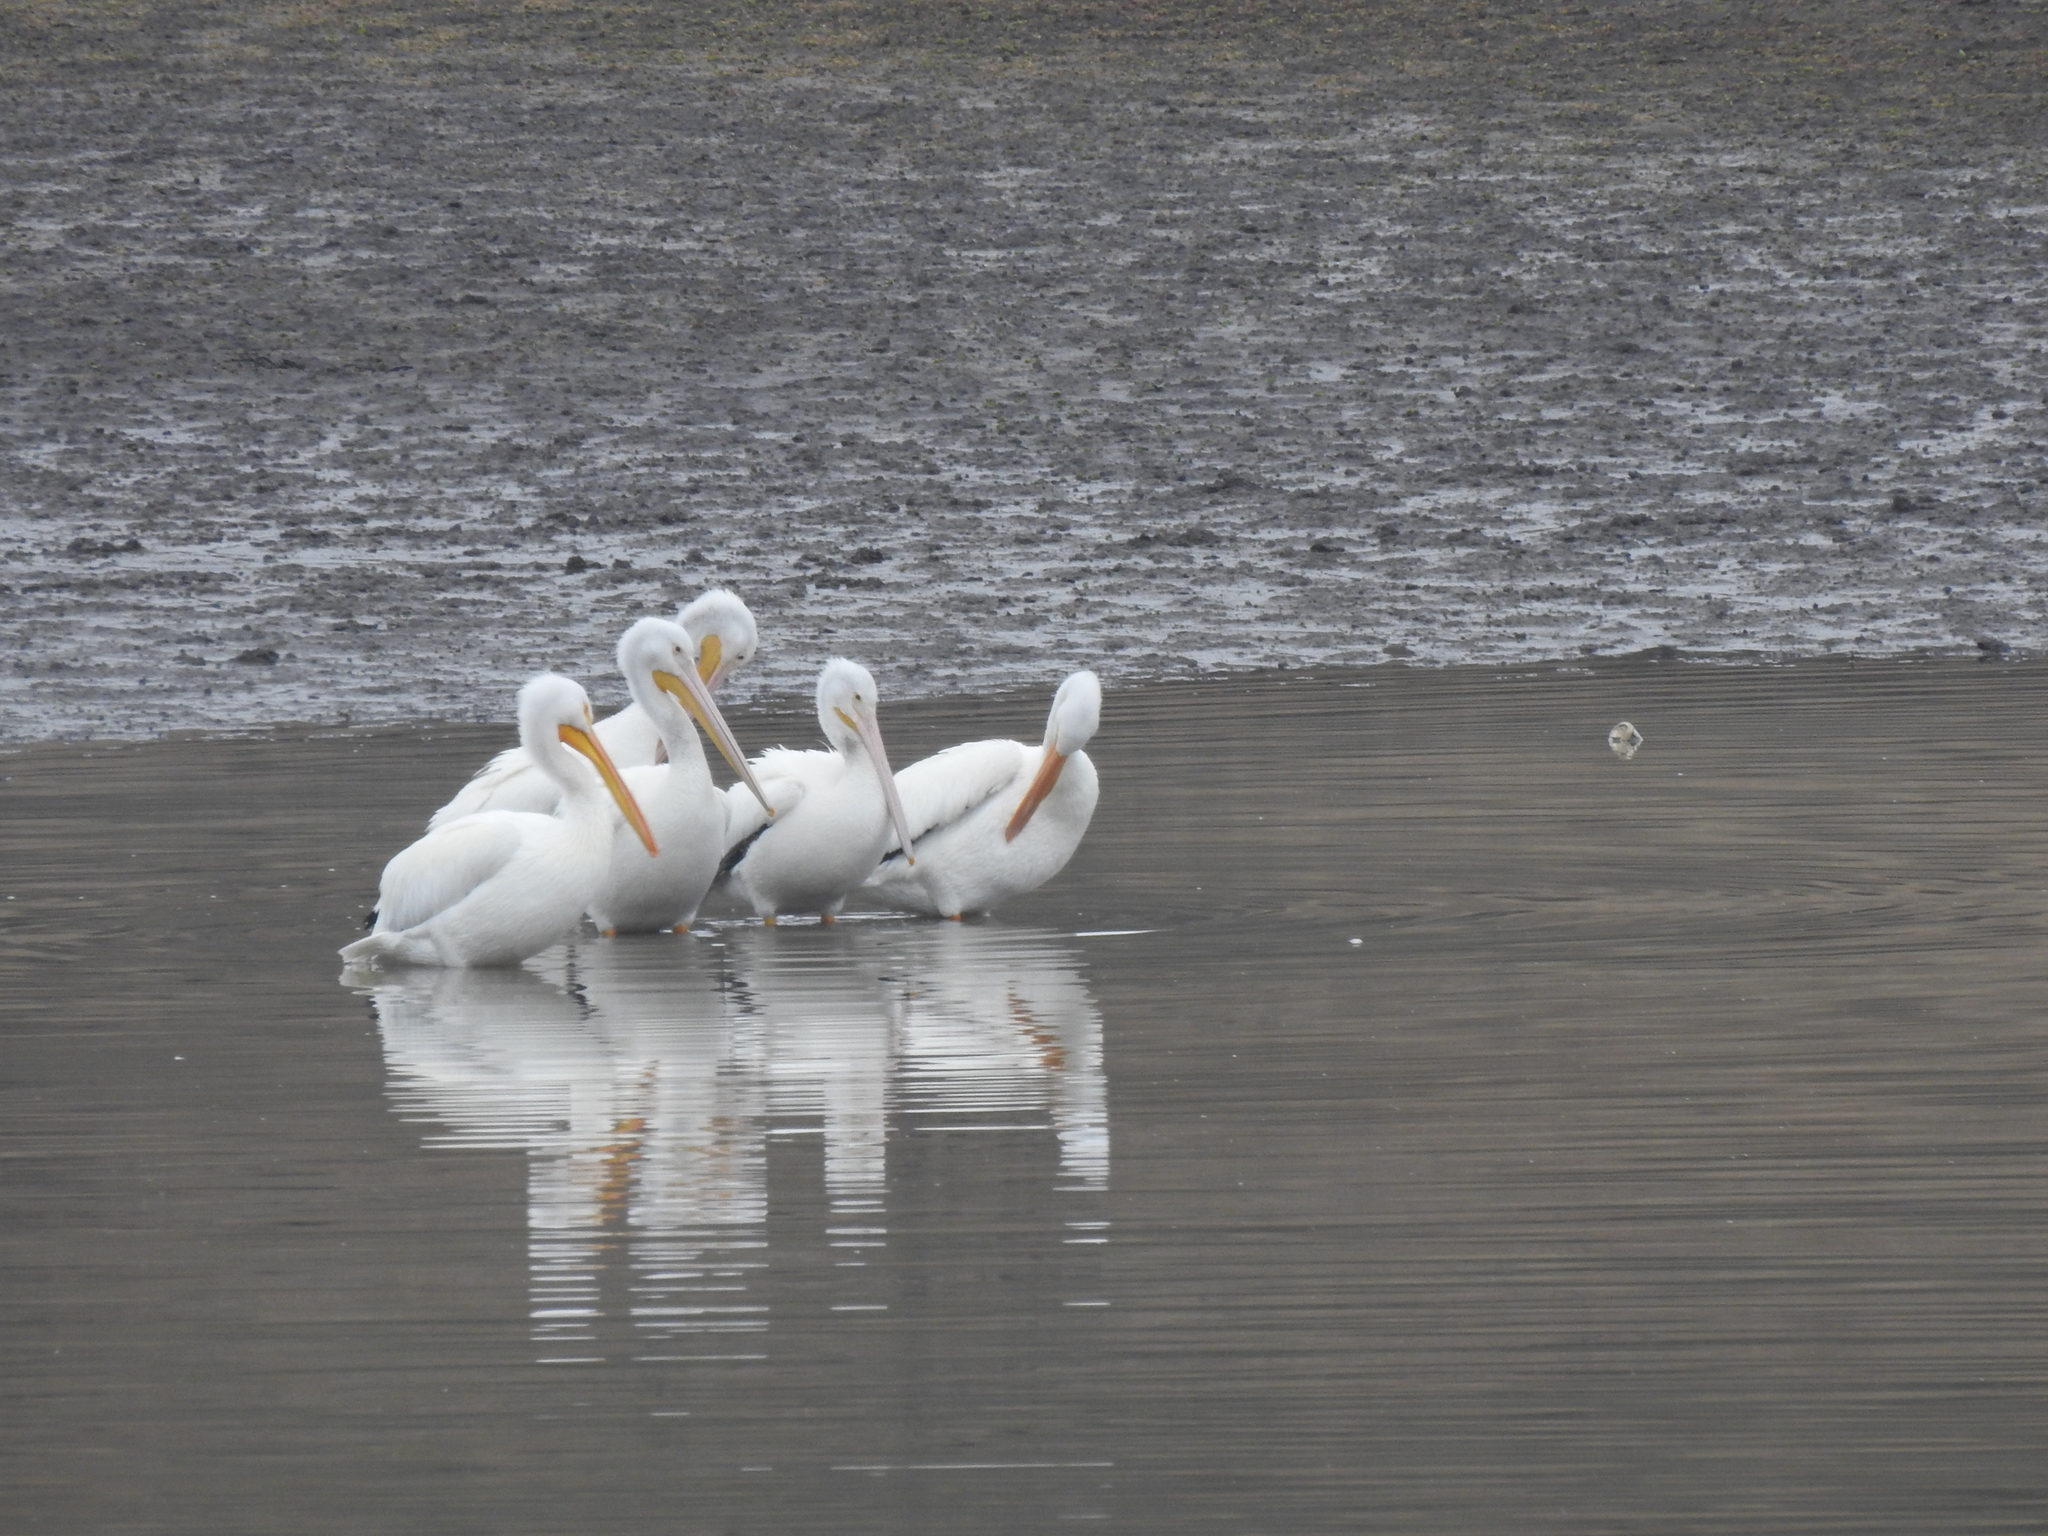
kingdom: Animalia
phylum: Chordata
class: Aves
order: Pelecaniformes
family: Pelecanidae
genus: Pelecanus
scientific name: Pelecanus erythrorhynchos
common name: American white pelican
